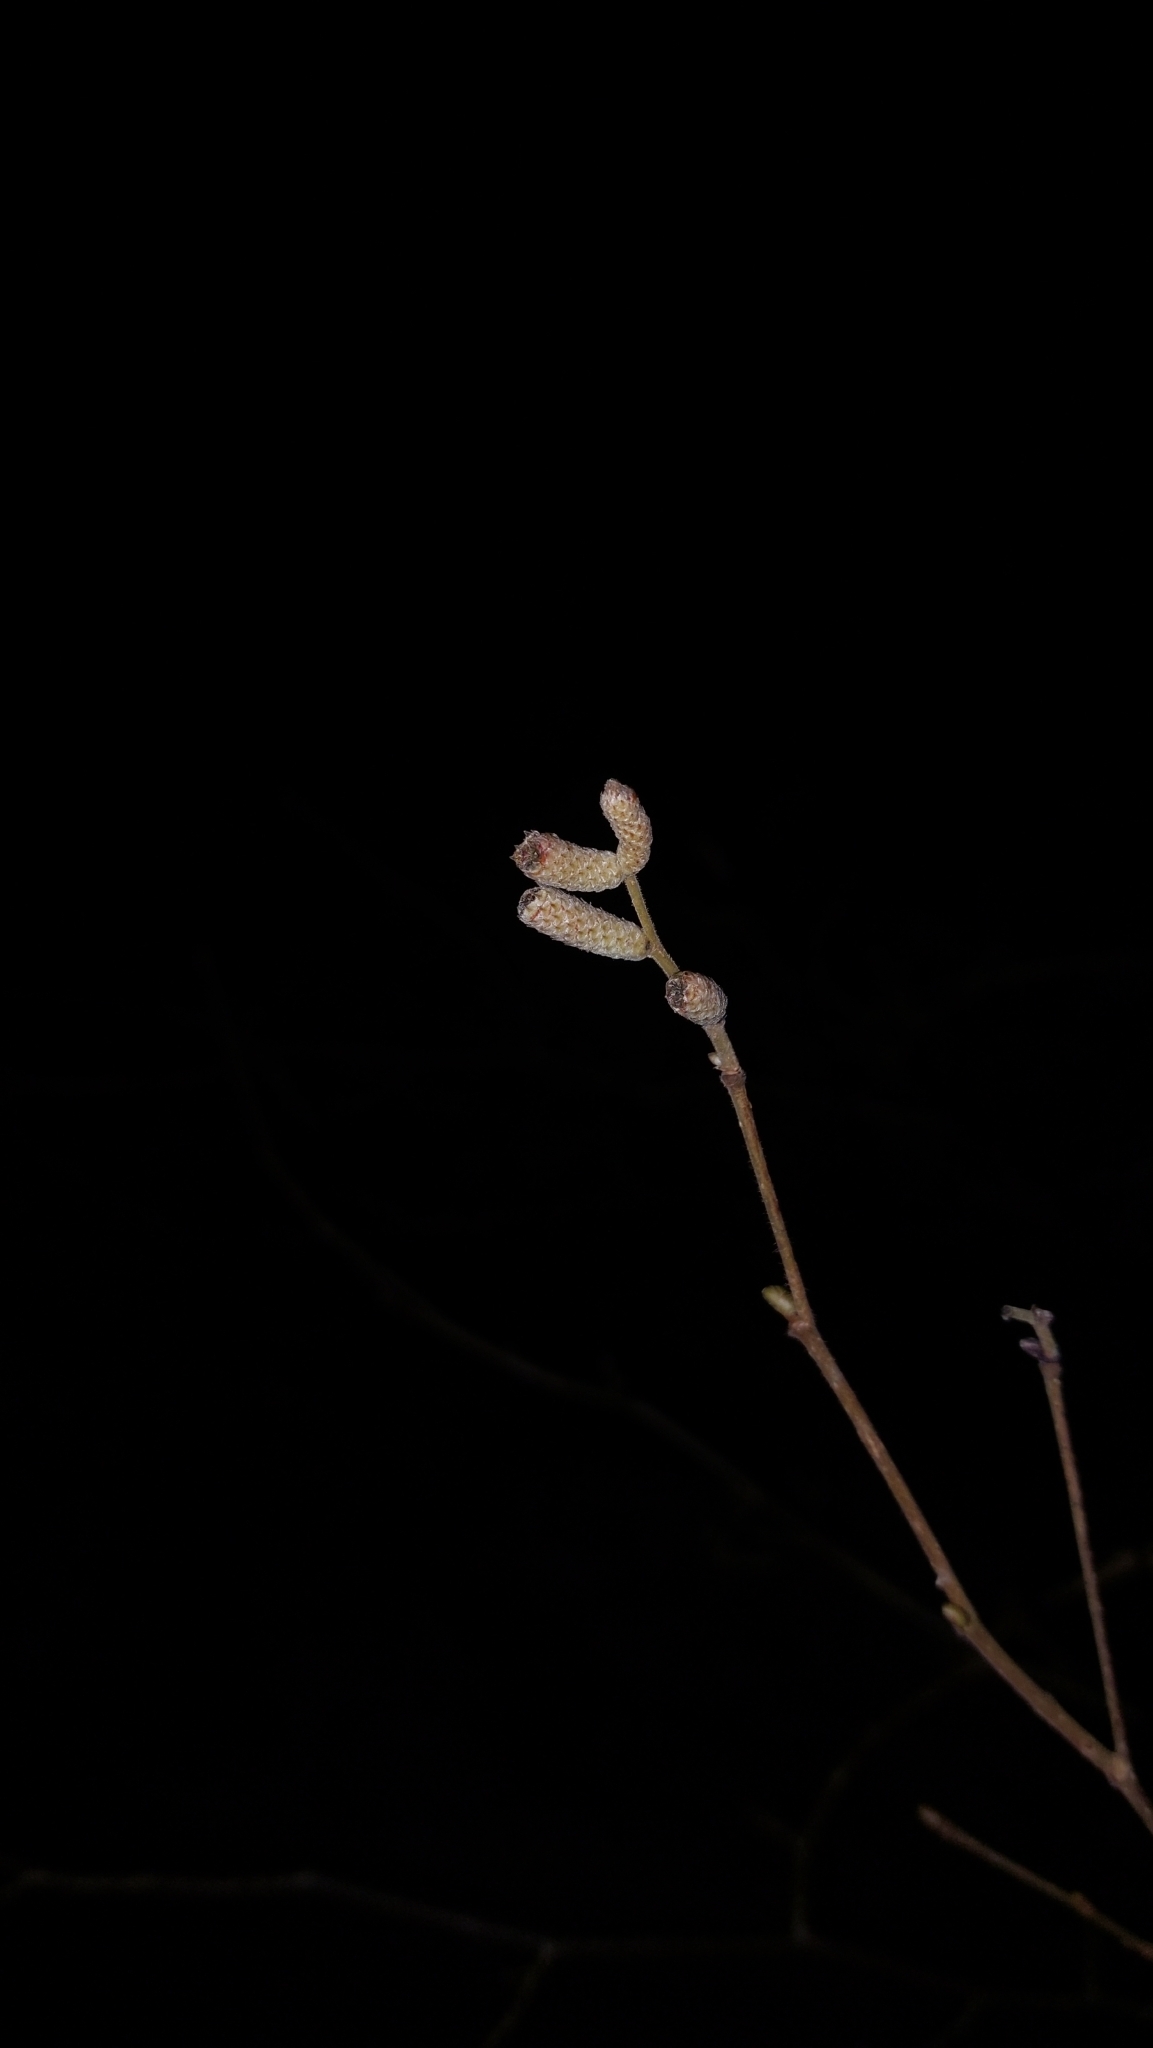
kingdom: Plantae
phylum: Tracheophyta
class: Magnoliopsida
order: Fagales
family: Betulaceae
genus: Corylus
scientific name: Corylus avellana
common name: European hazel
